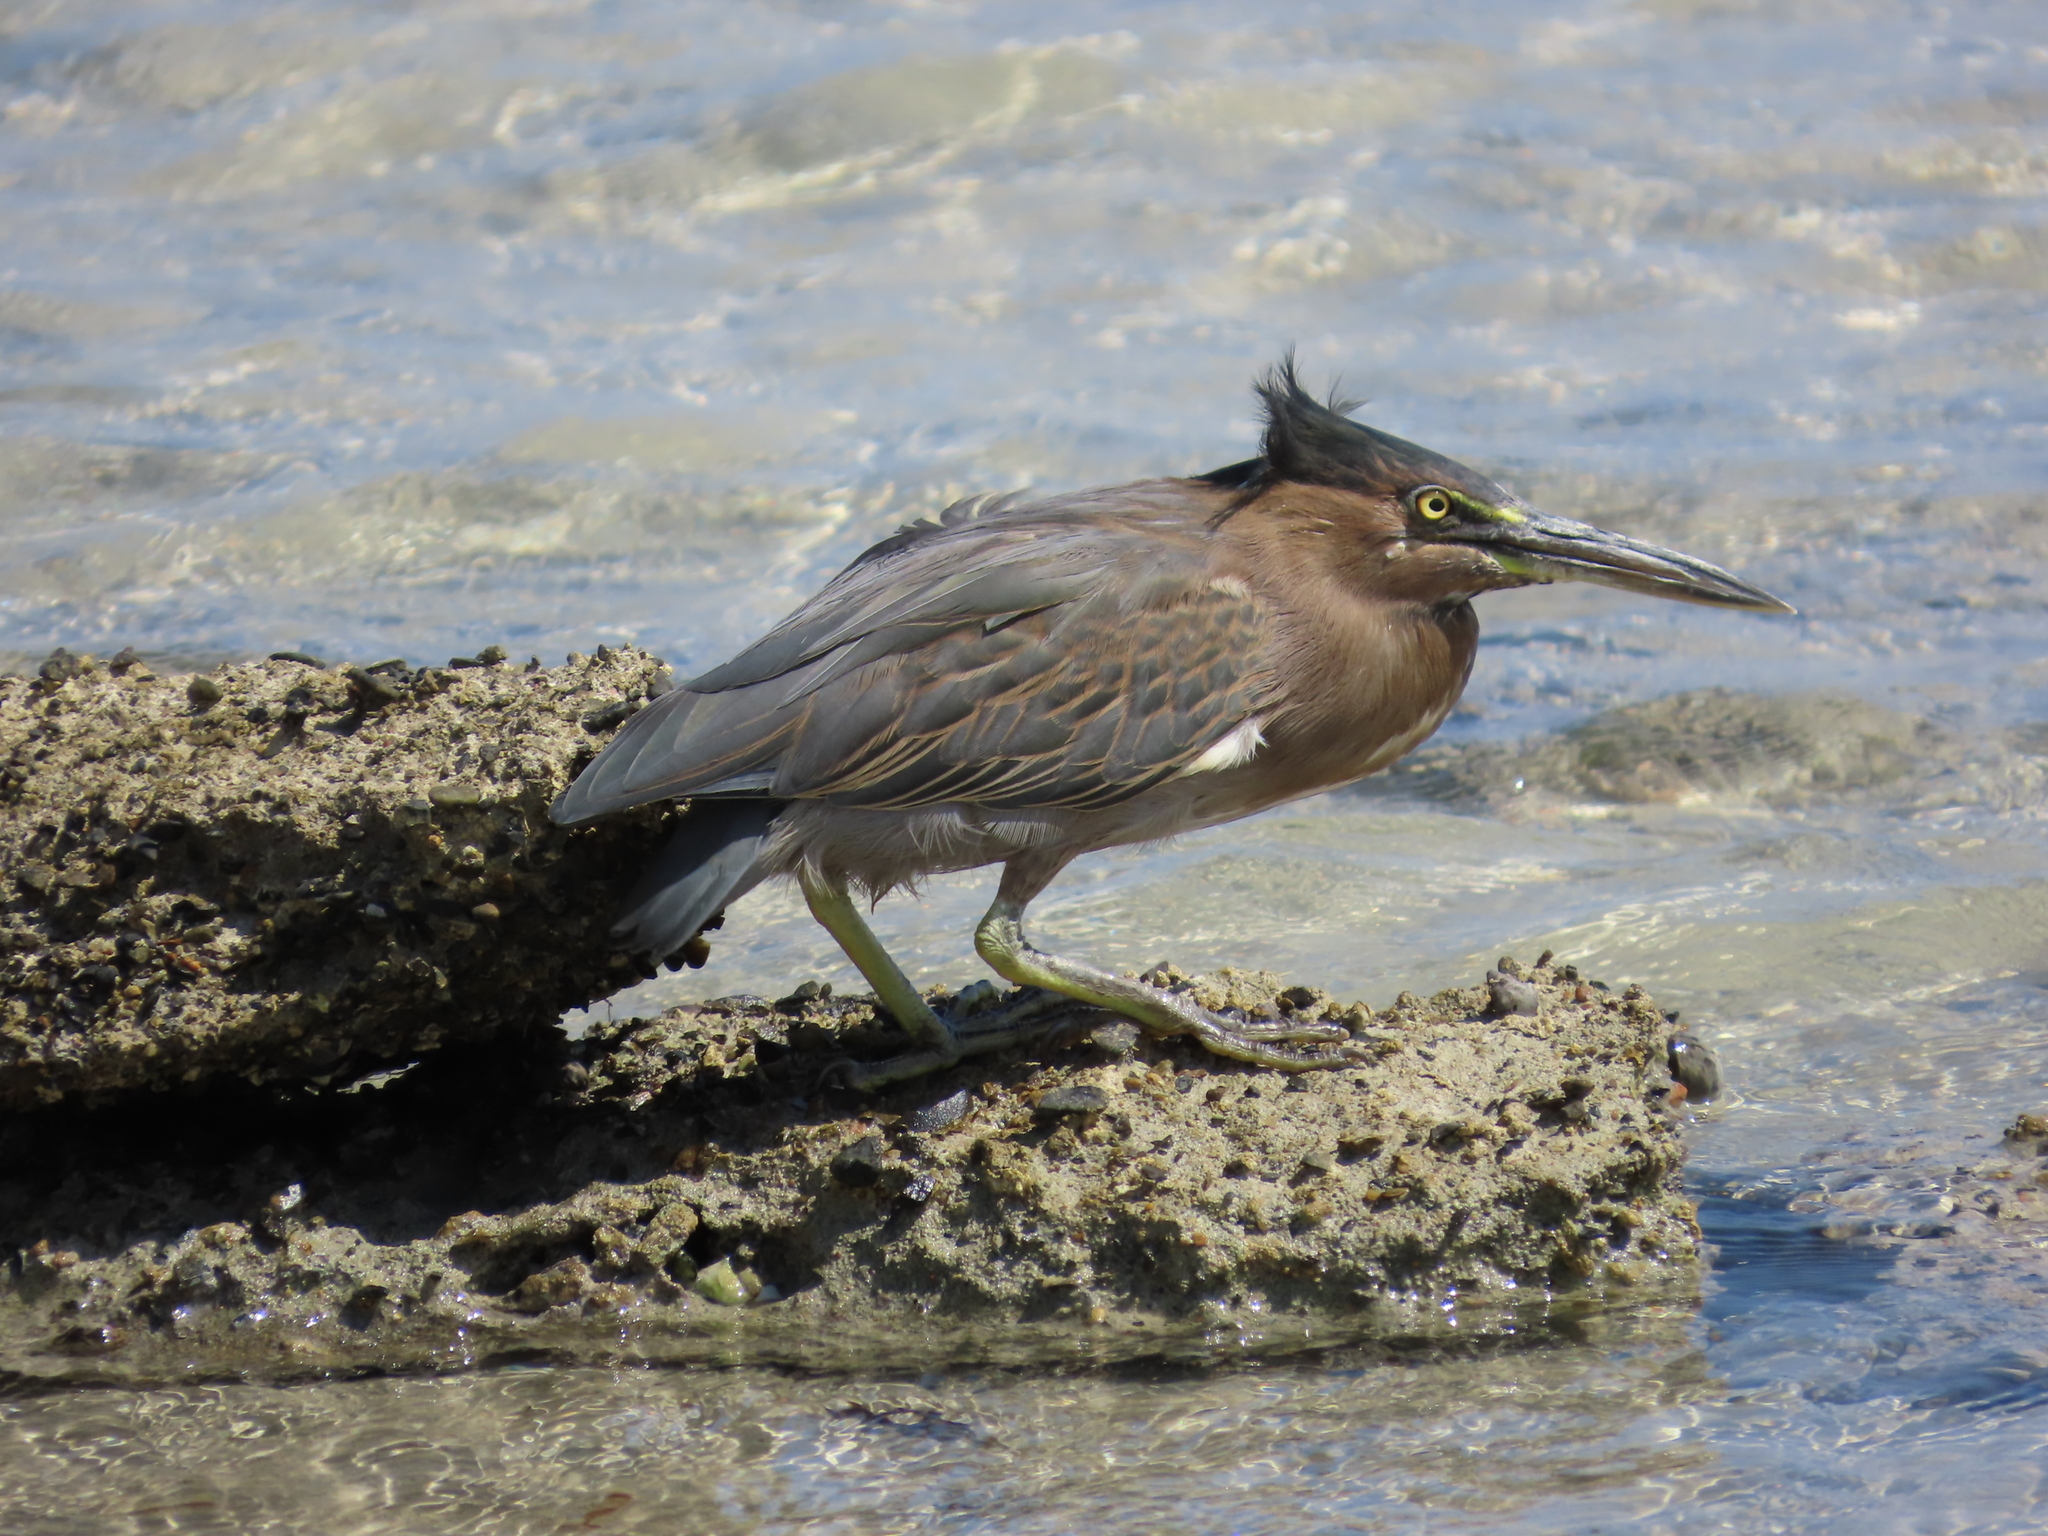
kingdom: Animalia
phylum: Chordata
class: Aves
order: Pelecaniformes
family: Ardeidae
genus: Butorides
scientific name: Butorides striata
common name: Striated heron
